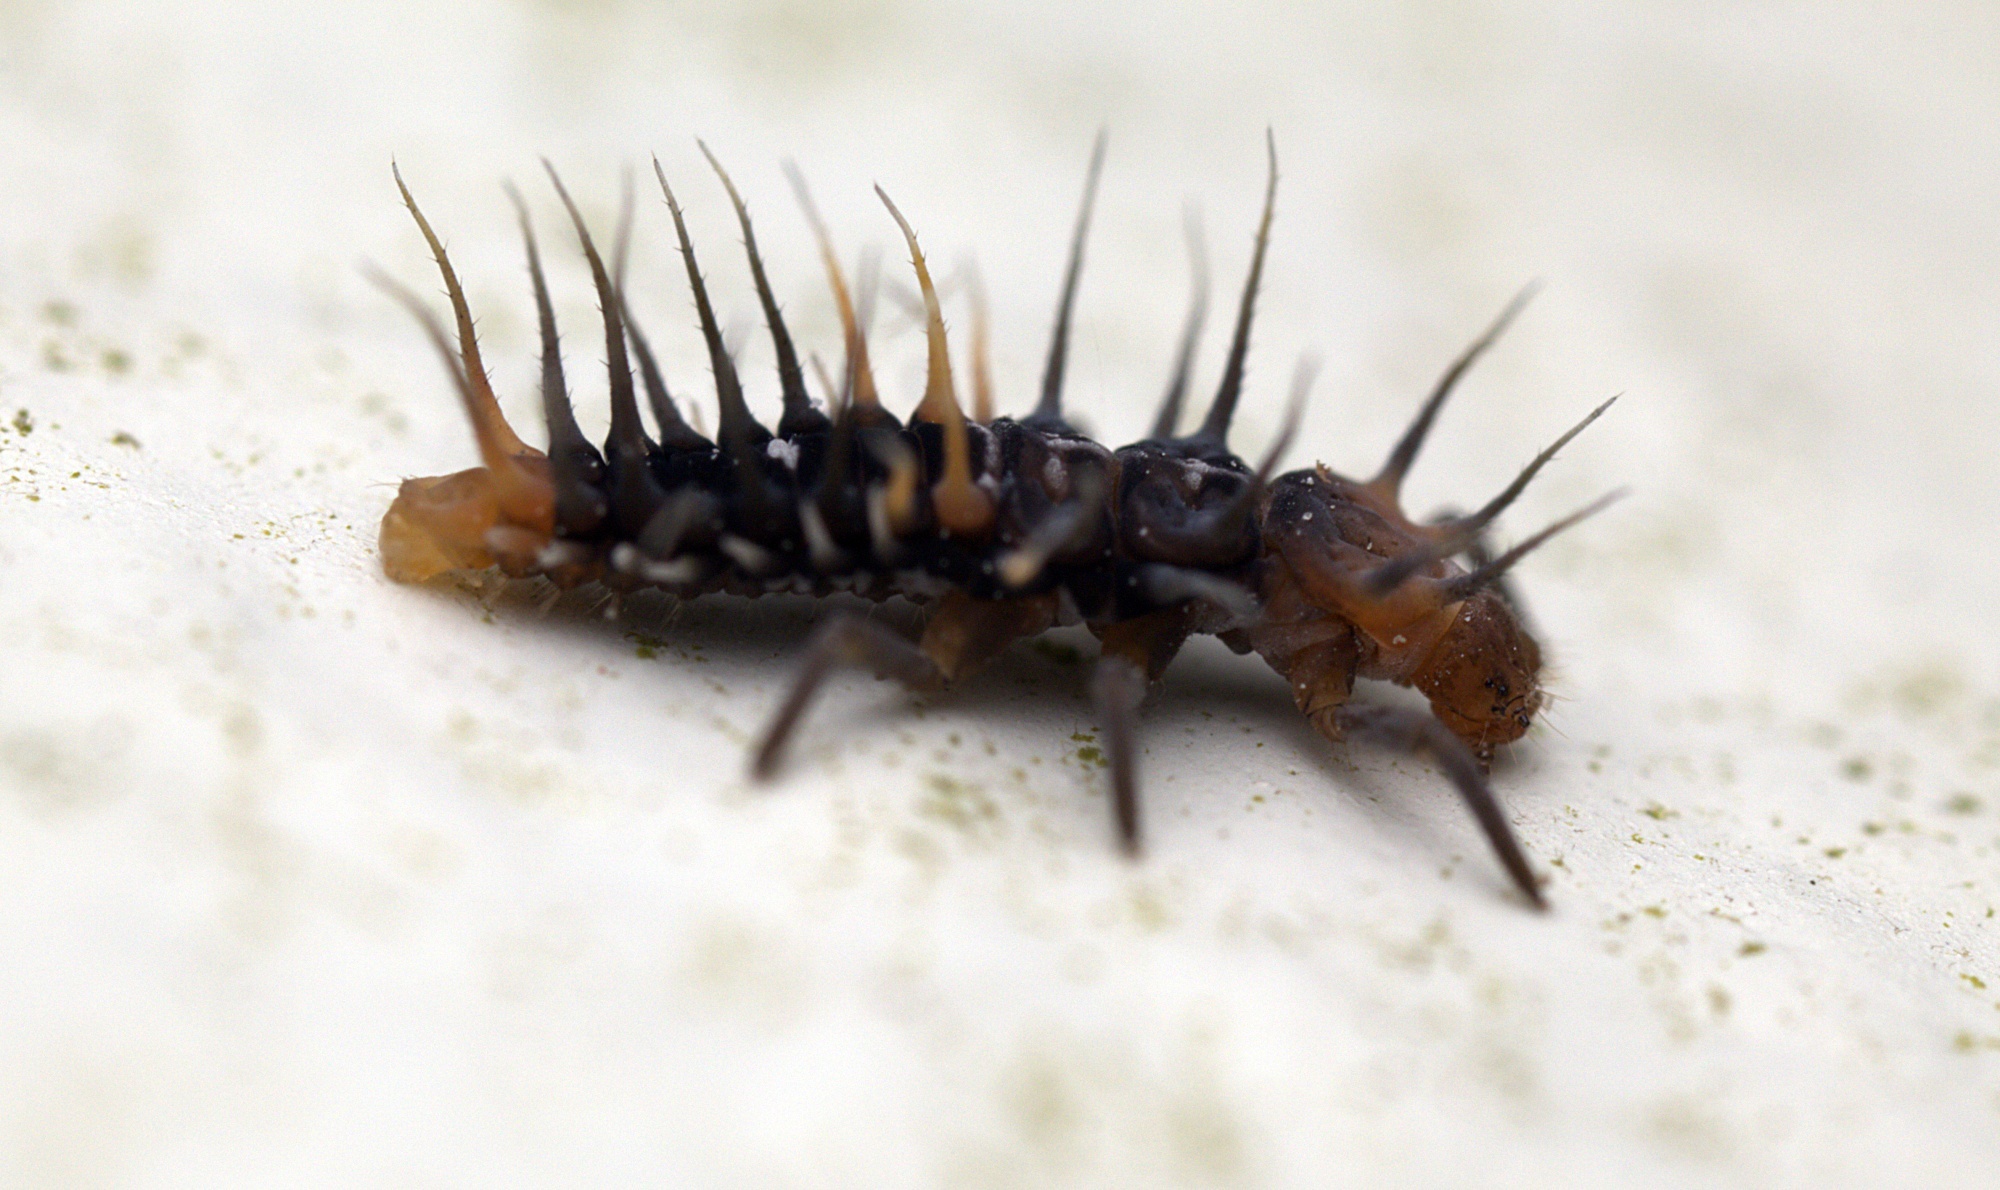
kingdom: Animalia
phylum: Arthropoda
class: Insecta
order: Coleoptera
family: Coccinellidae
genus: Scymnodes
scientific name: Scymnodes lividigaster
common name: Yellowshouldered lady beetle
